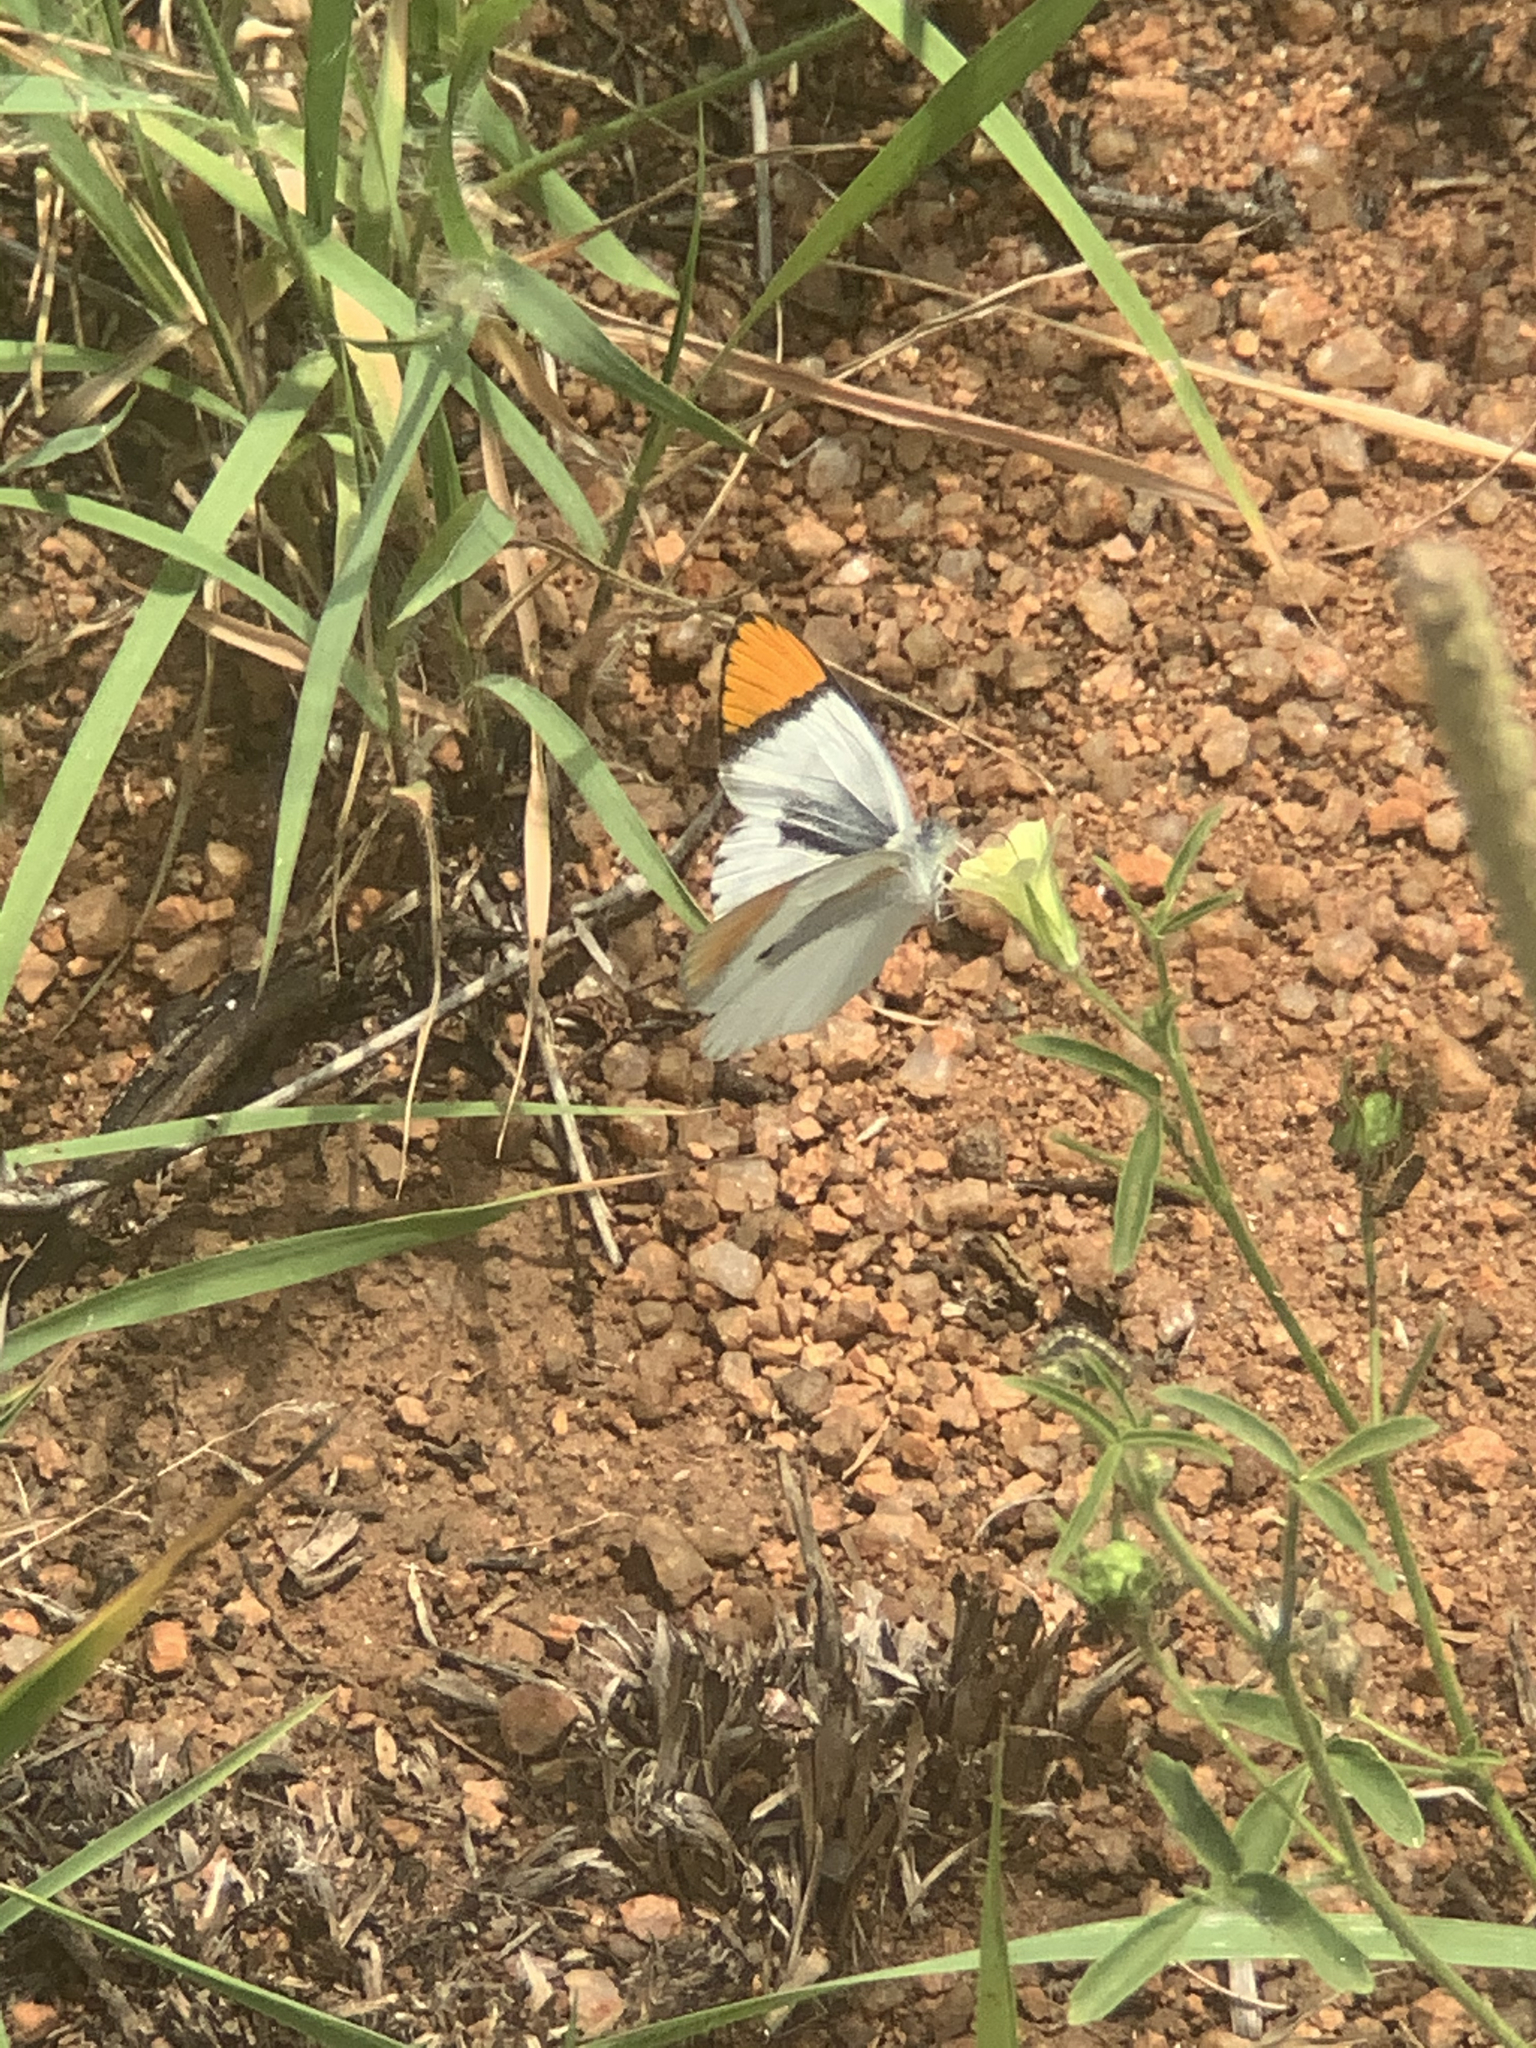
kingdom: Animalia
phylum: Arthropoda
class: Insecta
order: Lepidoptera
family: Pieridae
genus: Colotis
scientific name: Colotis evenina
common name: Common orange tip
